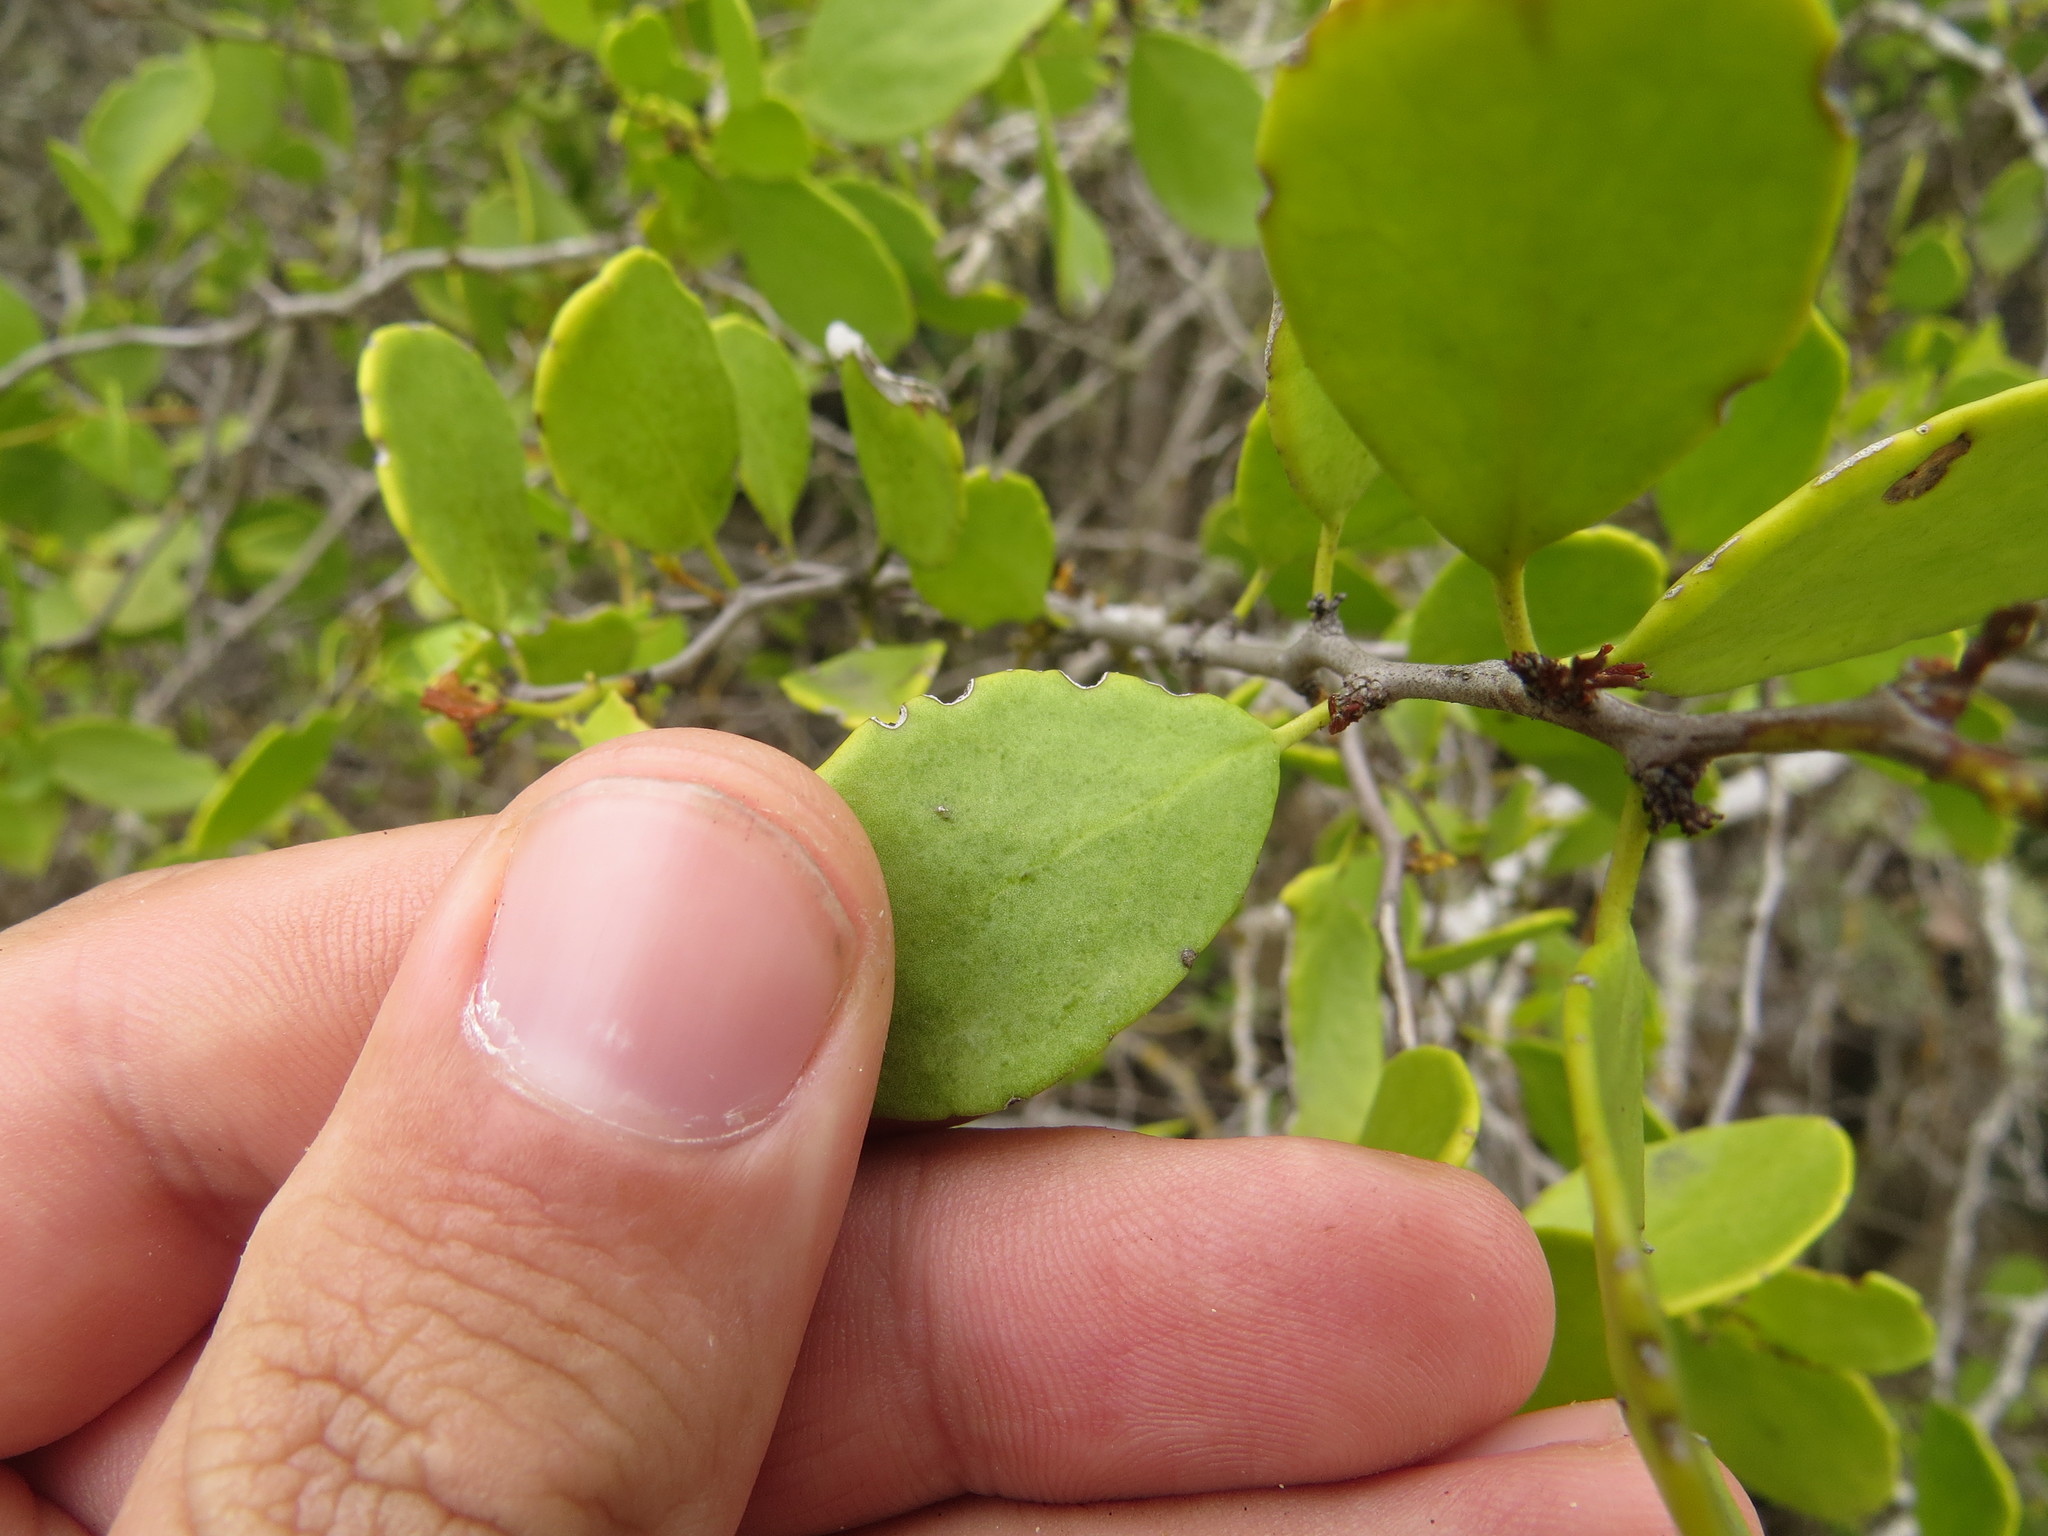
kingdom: Plantae
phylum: Tracheophyta
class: Magnoliopsida
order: Celastrales
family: Celastraceae
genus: Tricerma
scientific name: Tricerma octogonum
